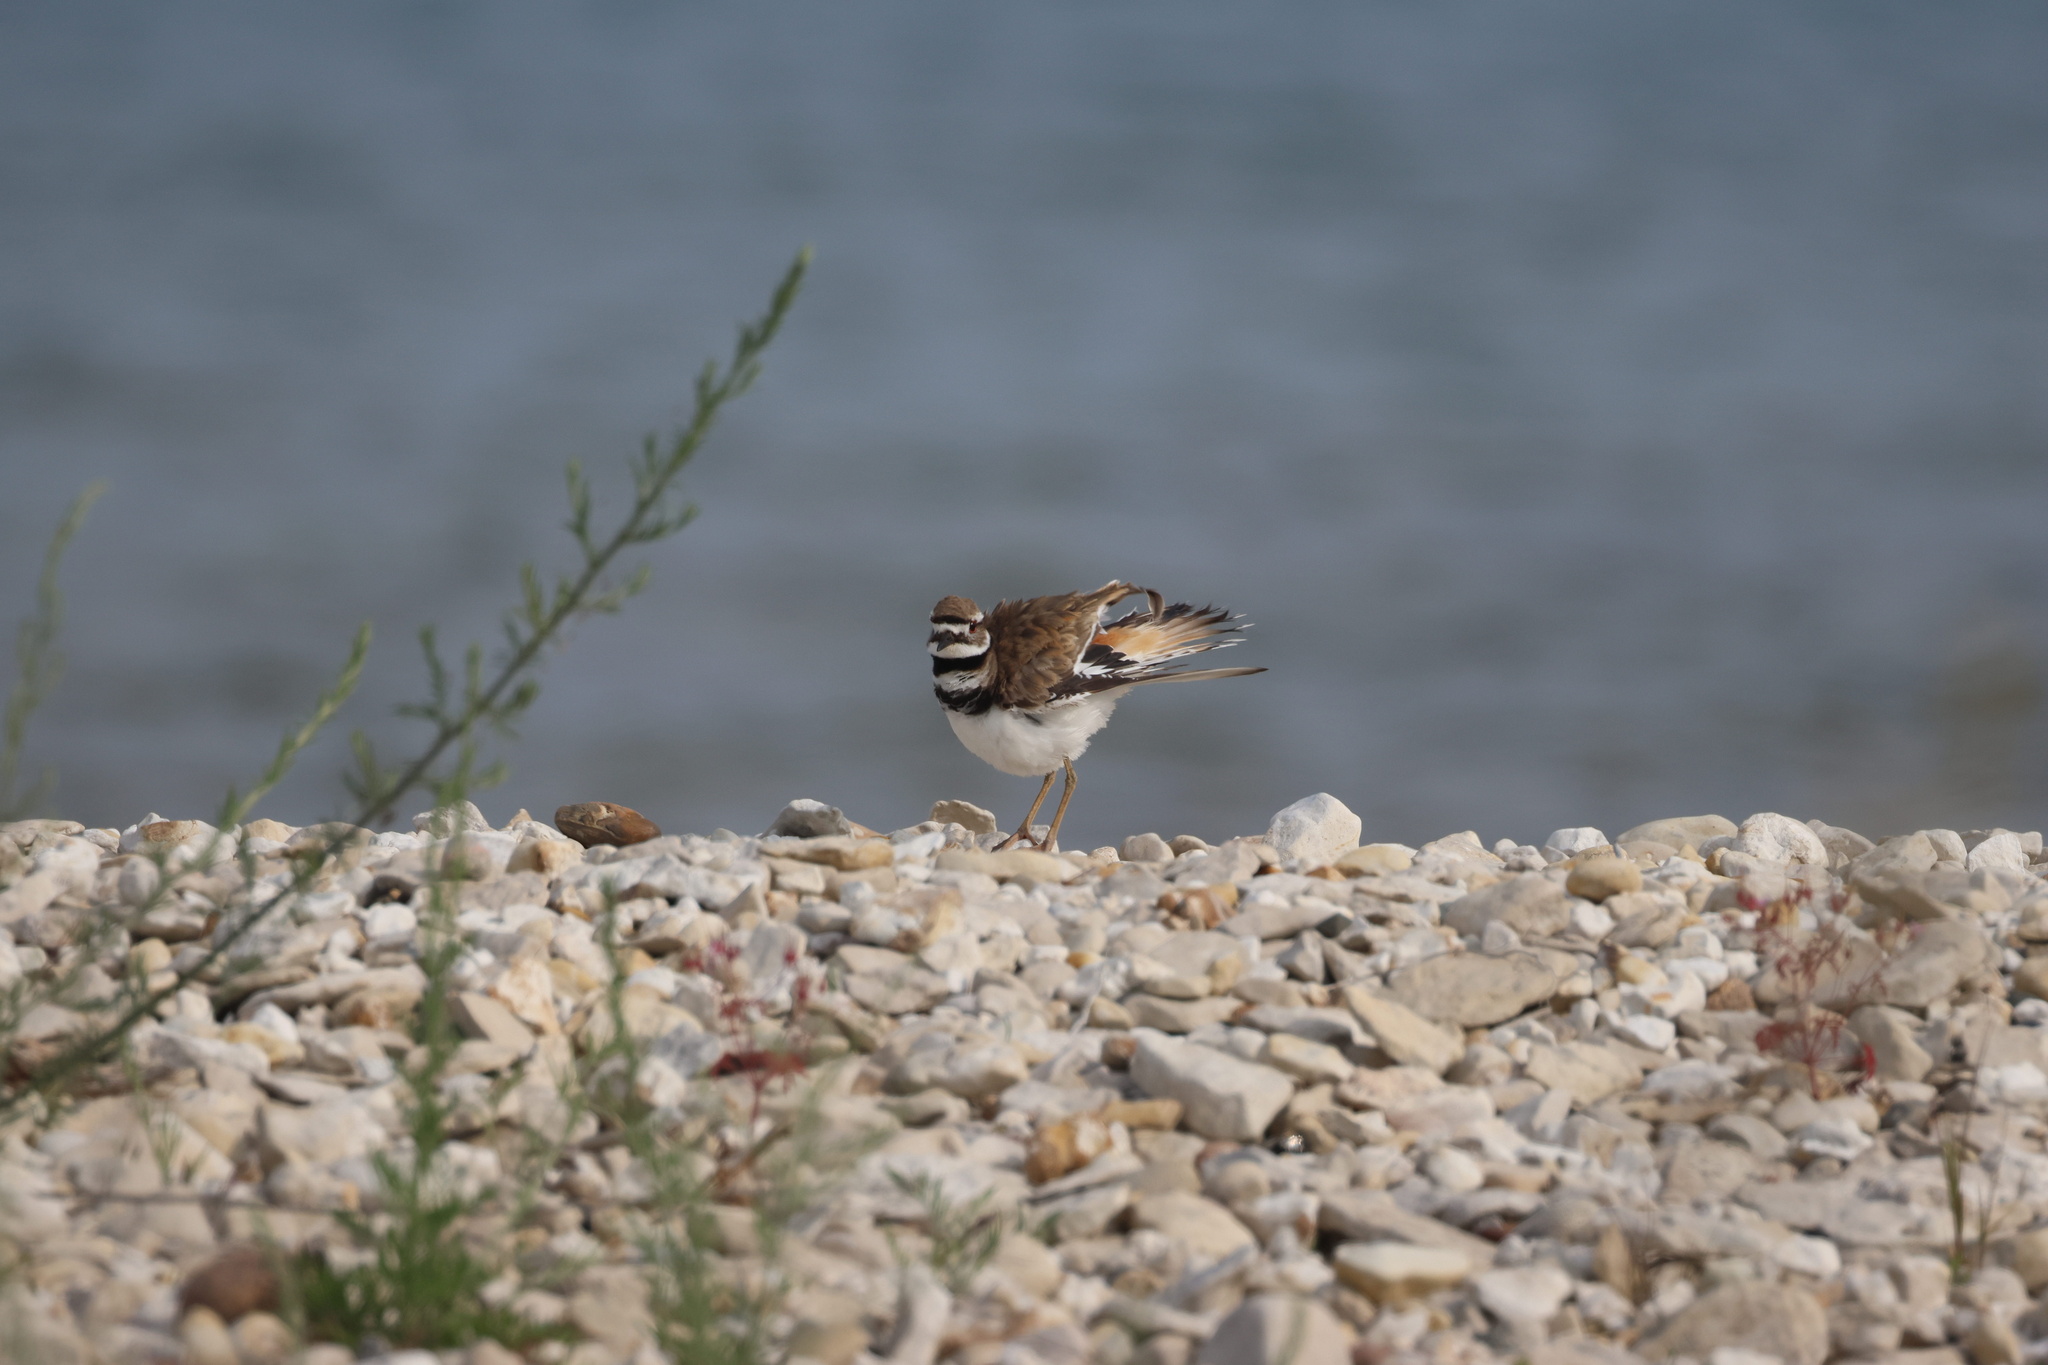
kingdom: Animalia
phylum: Chordata
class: Aves
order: Charadriiformes
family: Charadriidae
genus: Charadrius
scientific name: Charadrius vociferus
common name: Killdeer
